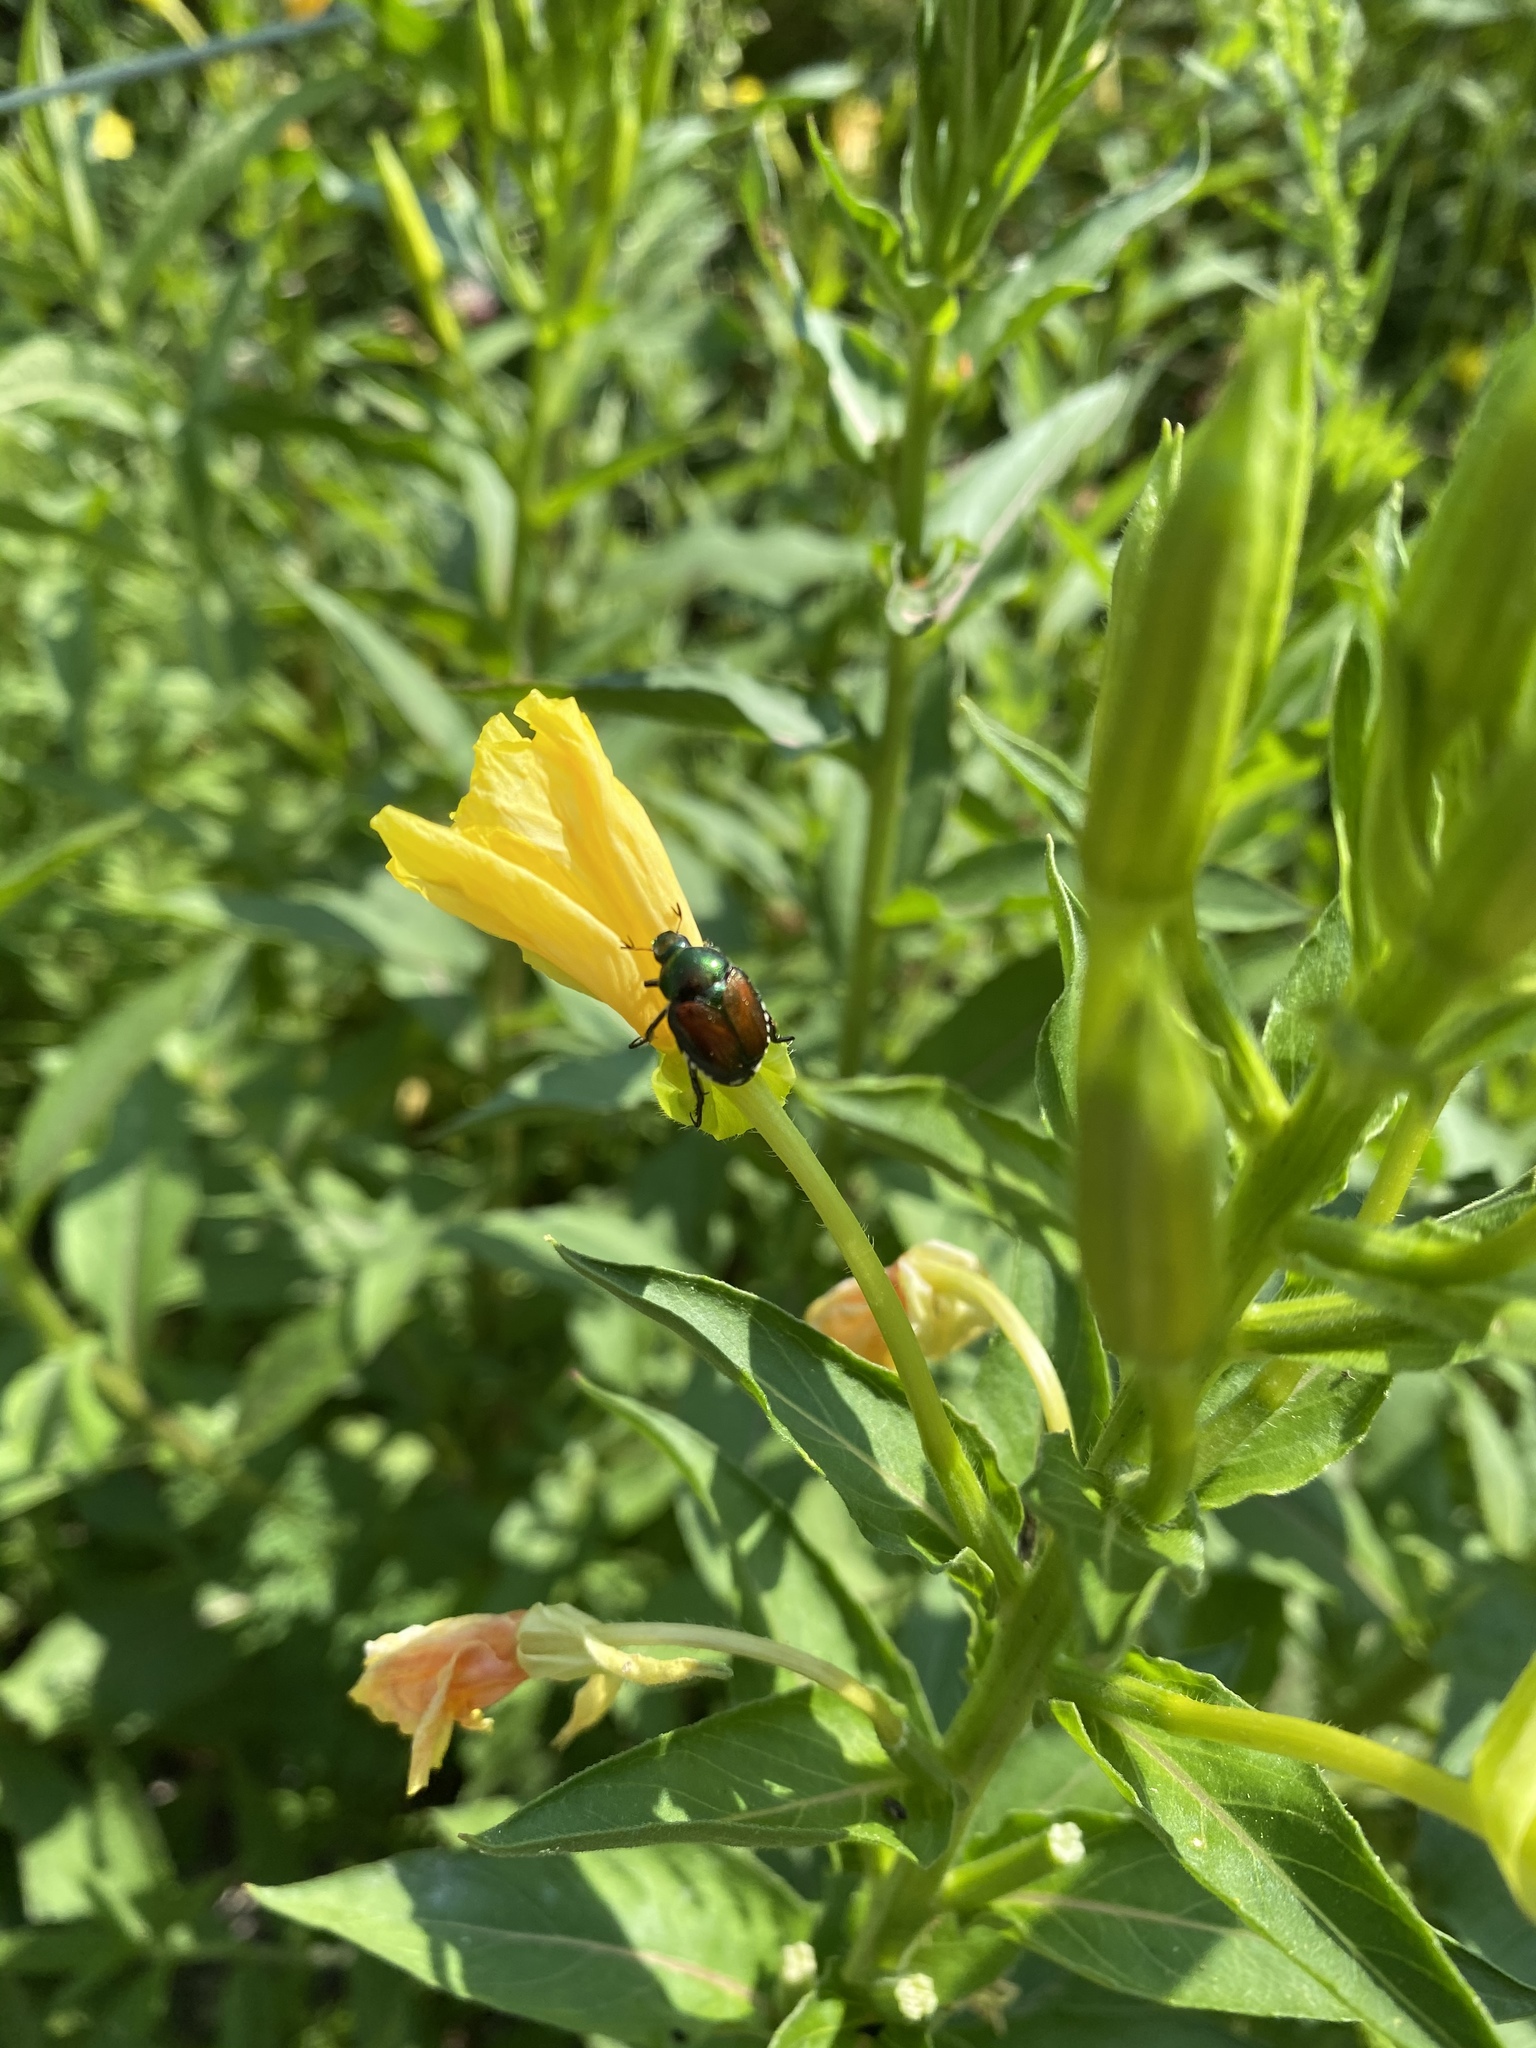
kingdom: Animalia
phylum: Arthropoda
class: Insecta
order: Coleoptera
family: Scarabaeidae
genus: Popillia
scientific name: Popillia japonica
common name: Japanese beetle
